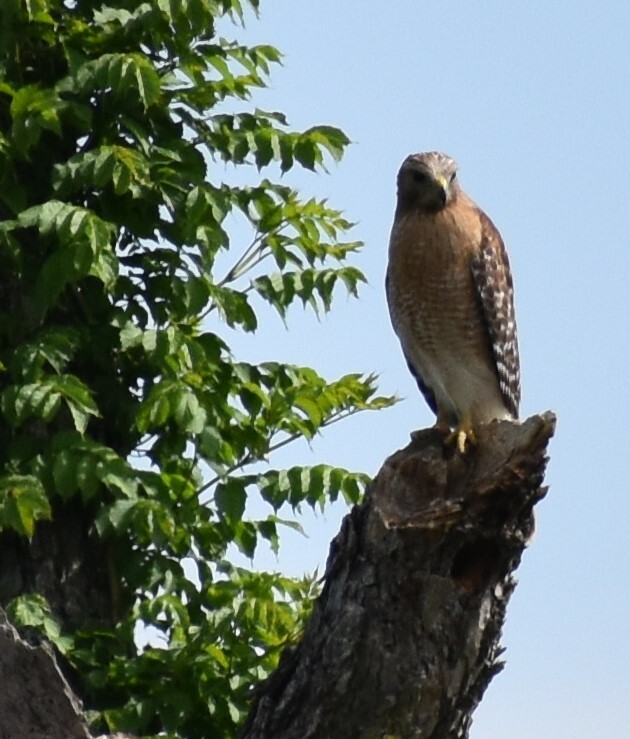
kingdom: Animalia
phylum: Chordata
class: Aves
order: Accipitriformes
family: Accipitridae
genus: Buteo
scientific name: Buteo lineatus
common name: Red-shouldered hawk
